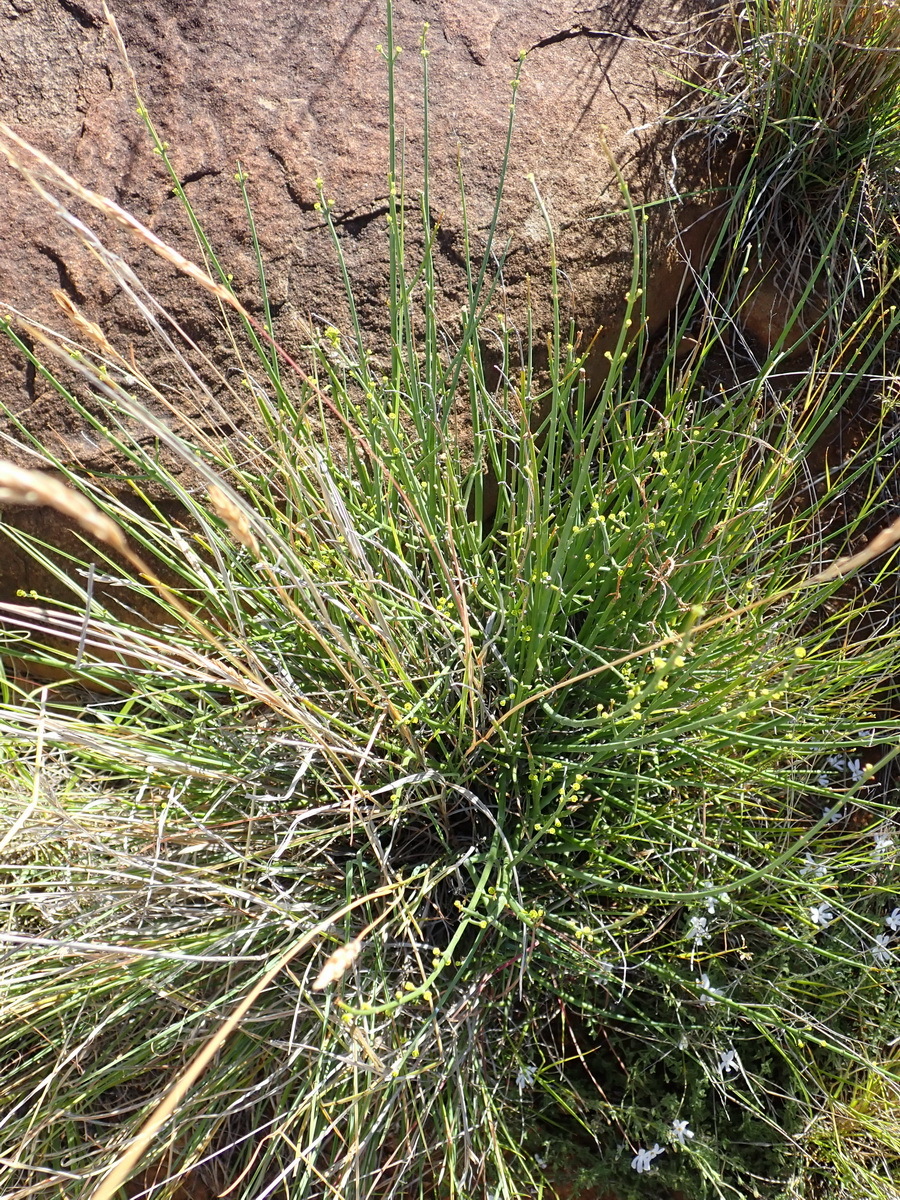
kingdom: Plantae
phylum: Tracheophyta
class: Magnoliopsida
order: Malpighiales
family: Euphorbiaceae
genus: Euphorbia
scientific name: Euphorbia rhombifolia
